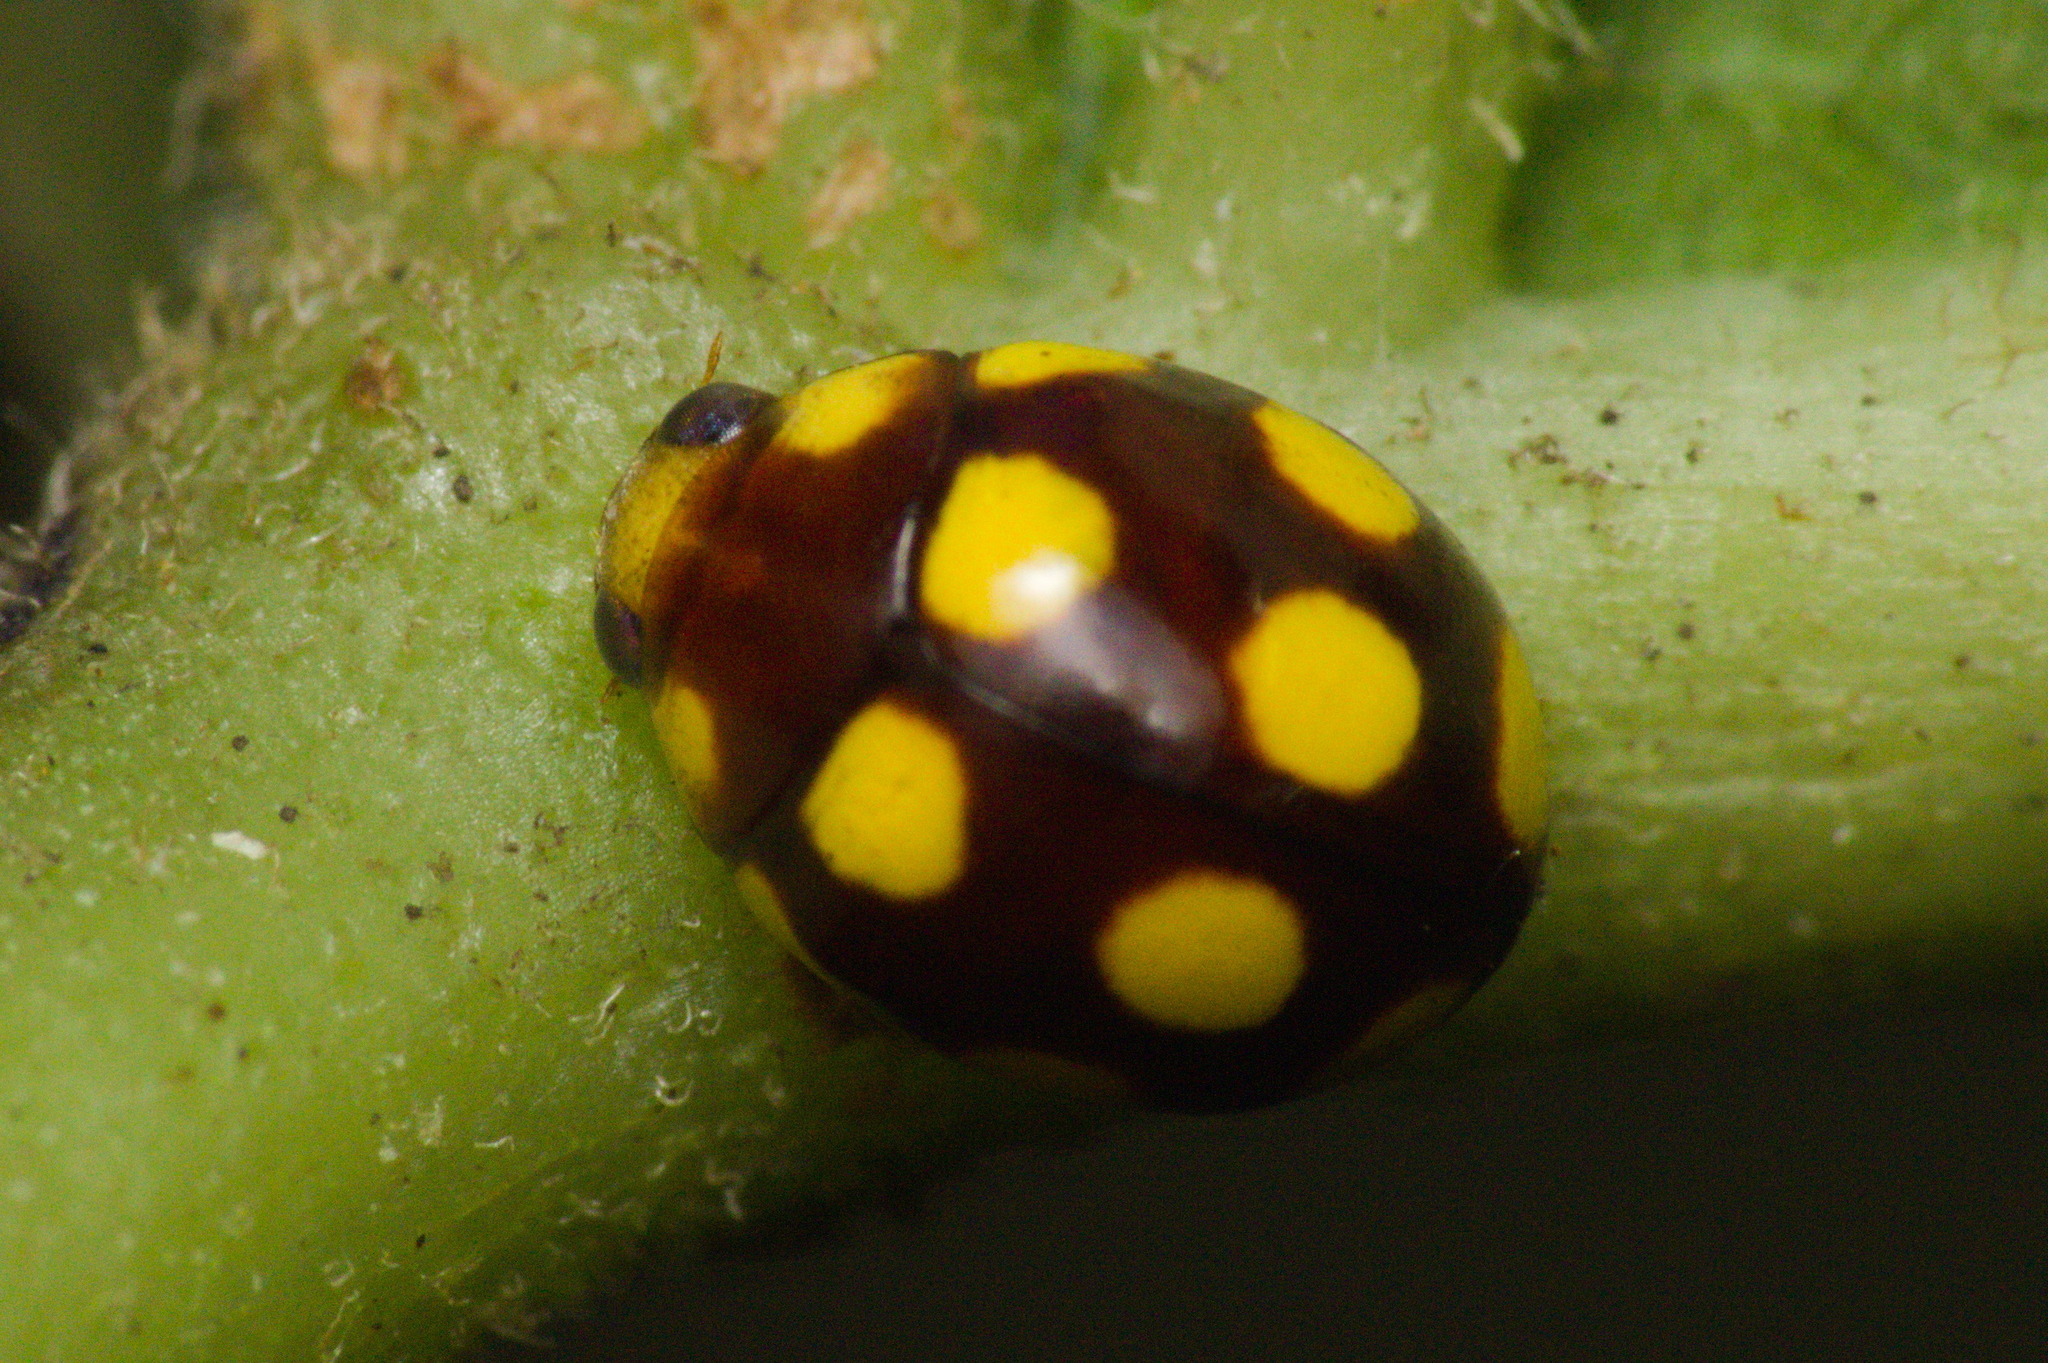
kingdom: Animalia
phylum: Arthropoda
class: Insecta
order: Coleoptera
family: Coccinellidae
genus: Dilatitibialis
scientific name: Dilatitibialis
